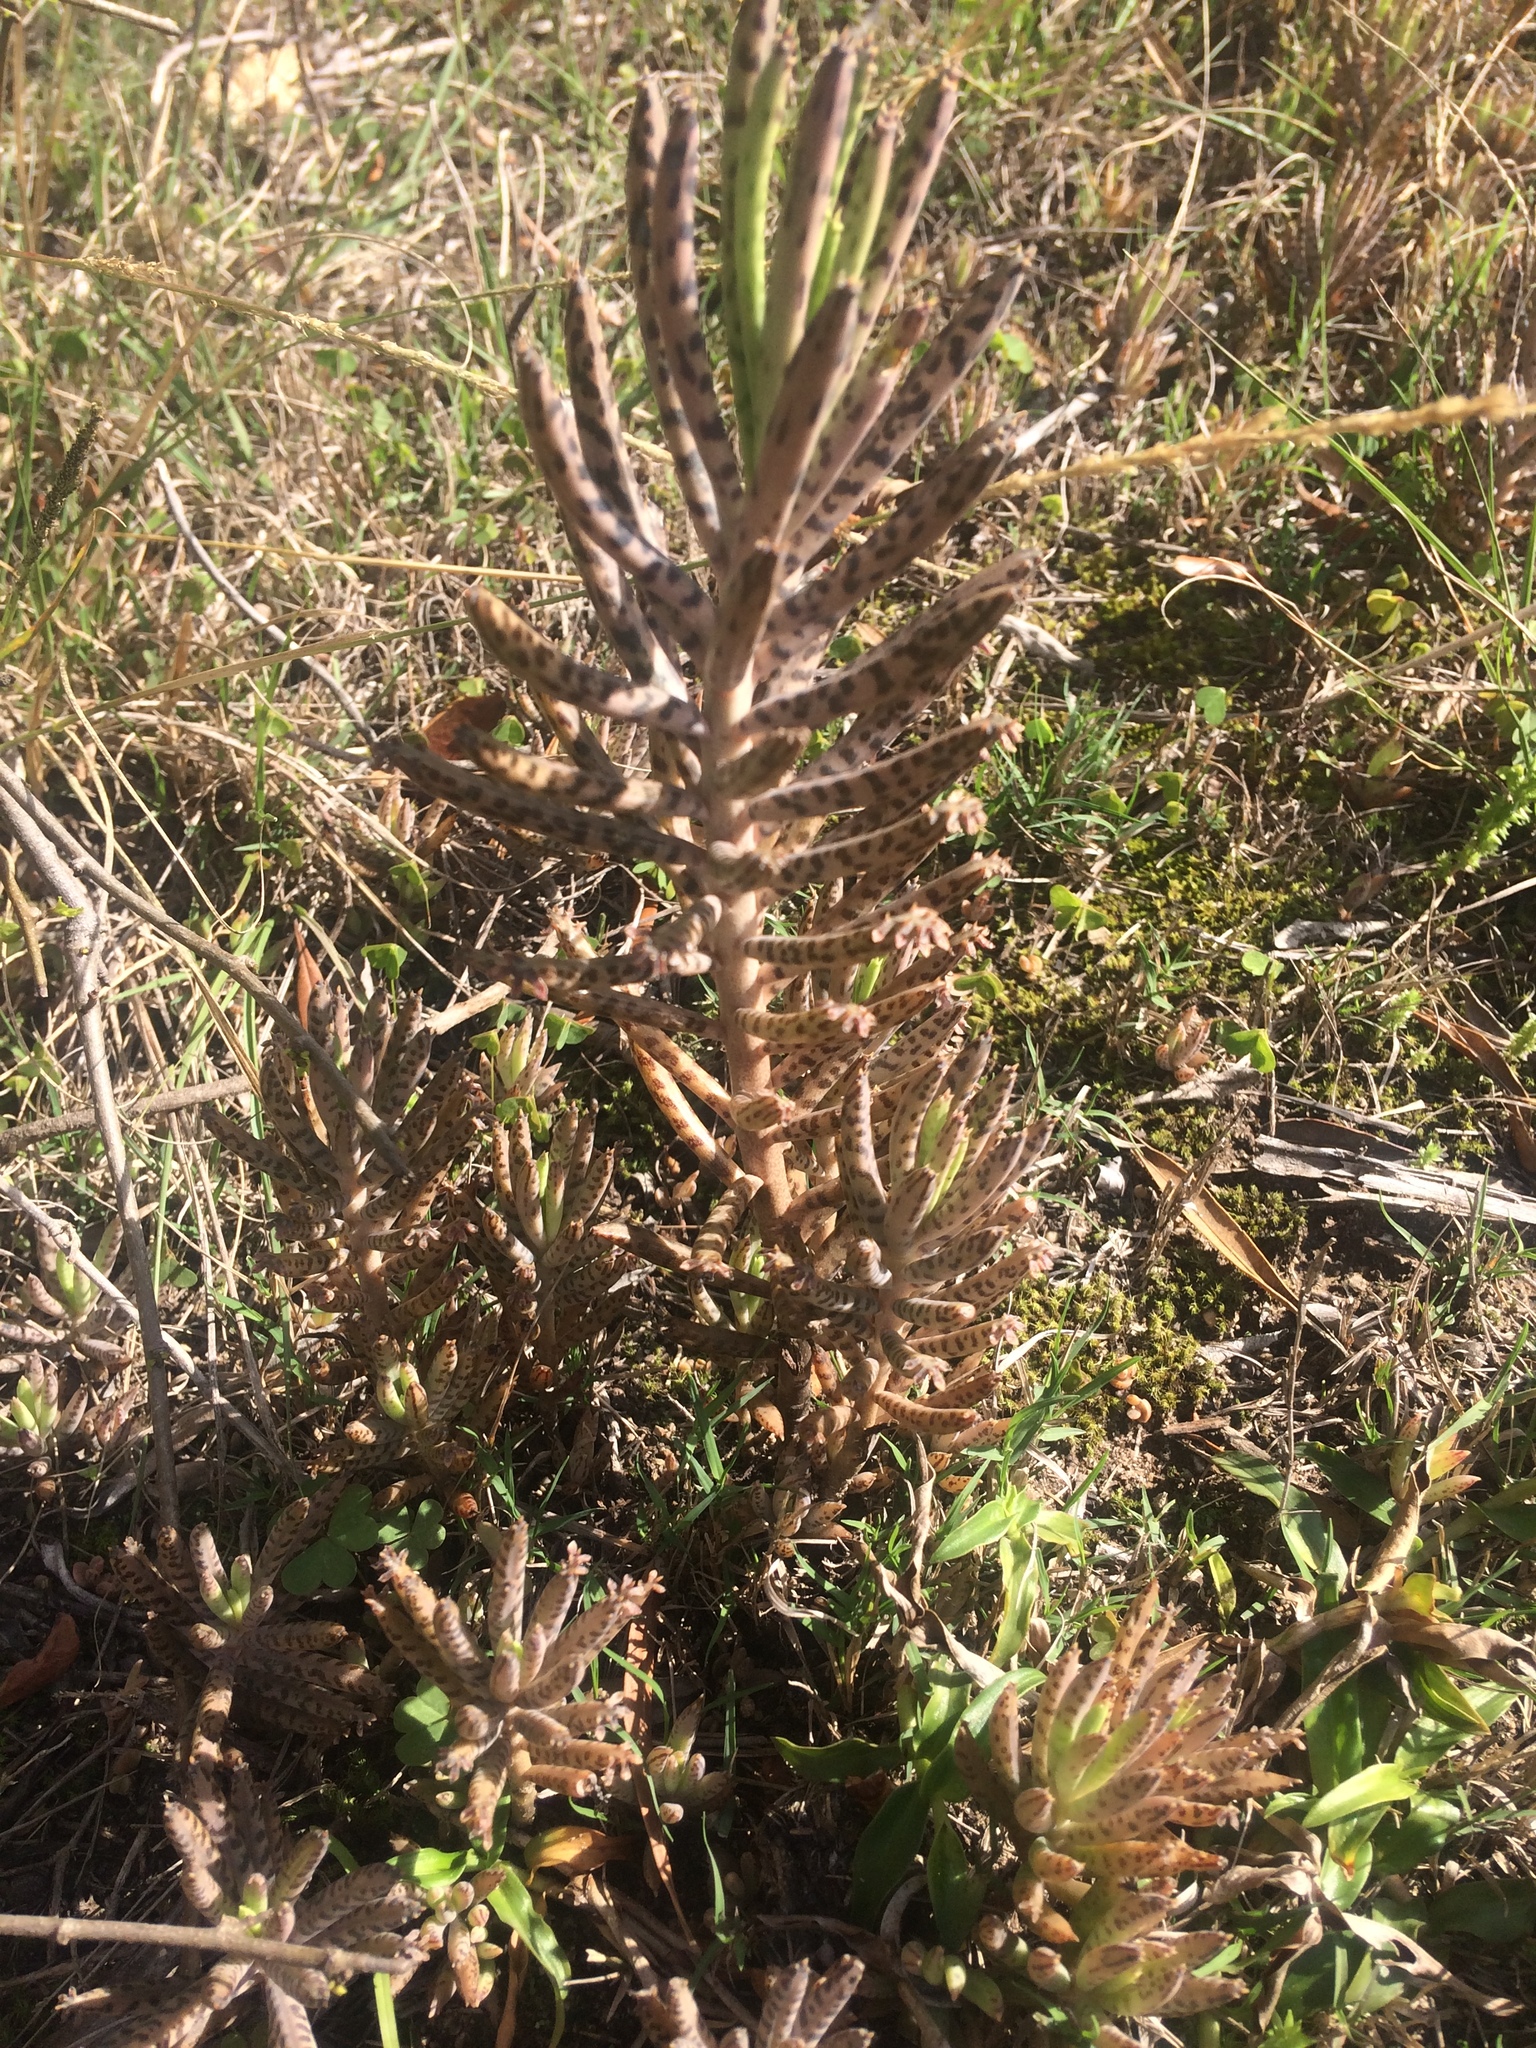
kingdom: Plantae
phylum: Tracheophyta
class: Magnoliopsida
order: Saxifragales
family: Crassulaceae
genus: Kalanchoe
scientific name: Kalanchoe delagoensis
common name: Chandelier plant
